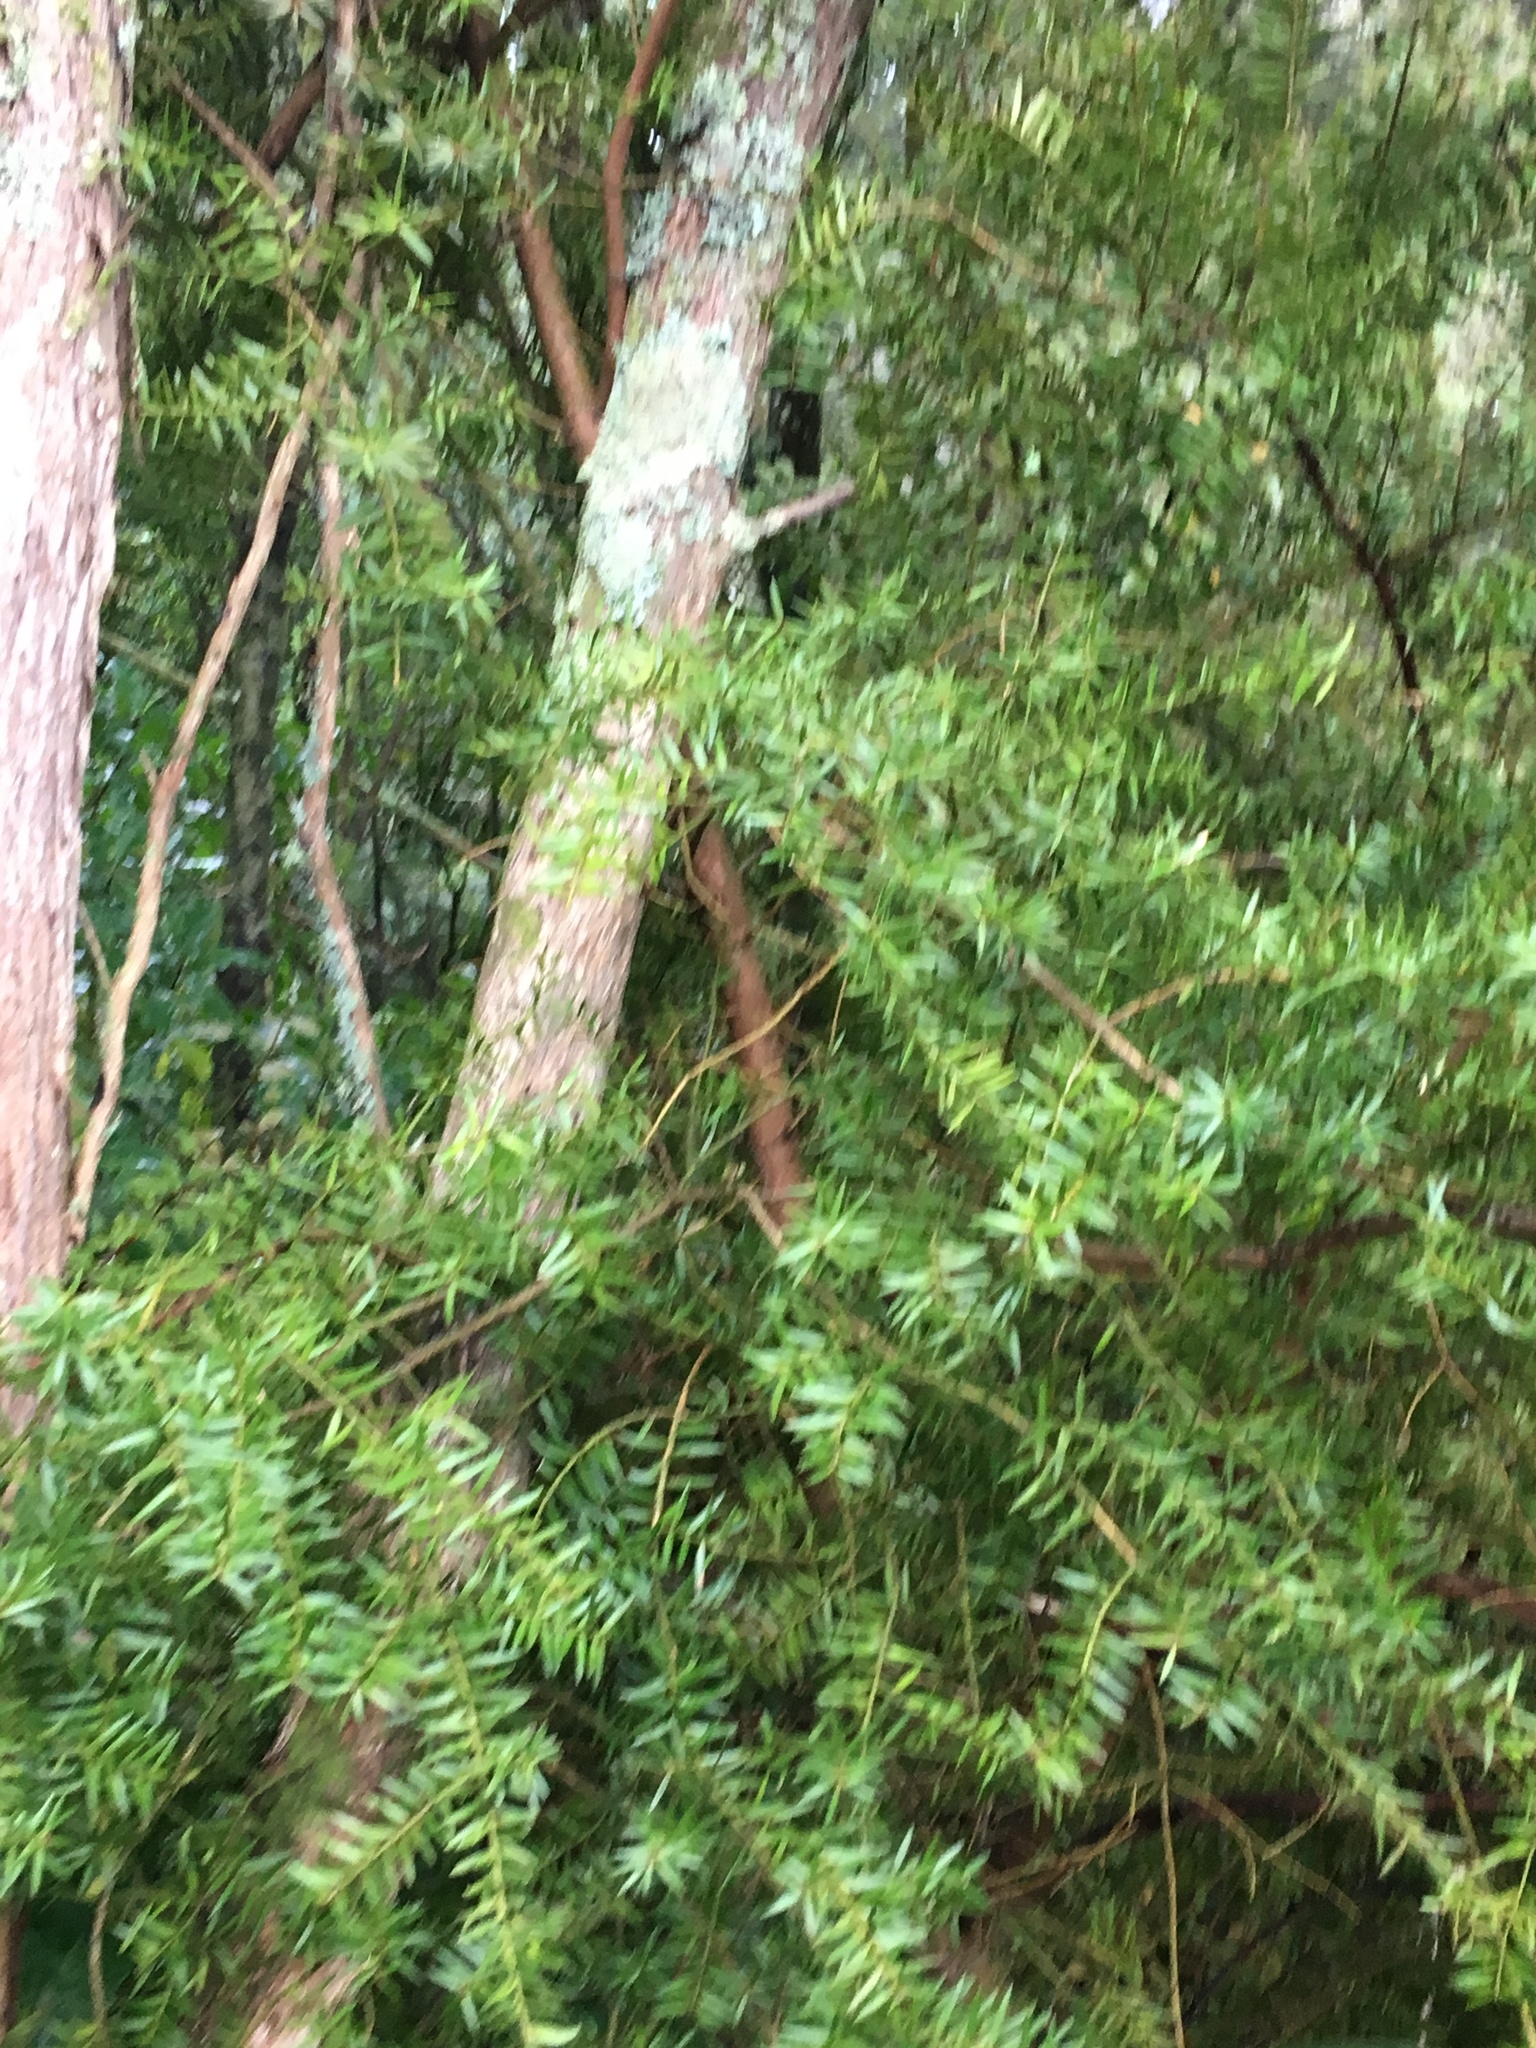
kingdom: Plantae
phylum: Tracheophyta
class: Pinopsida
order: Pinales
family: Podocarpaceae
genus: Podocarpus
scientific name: Podocarpus totara
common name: Totara
